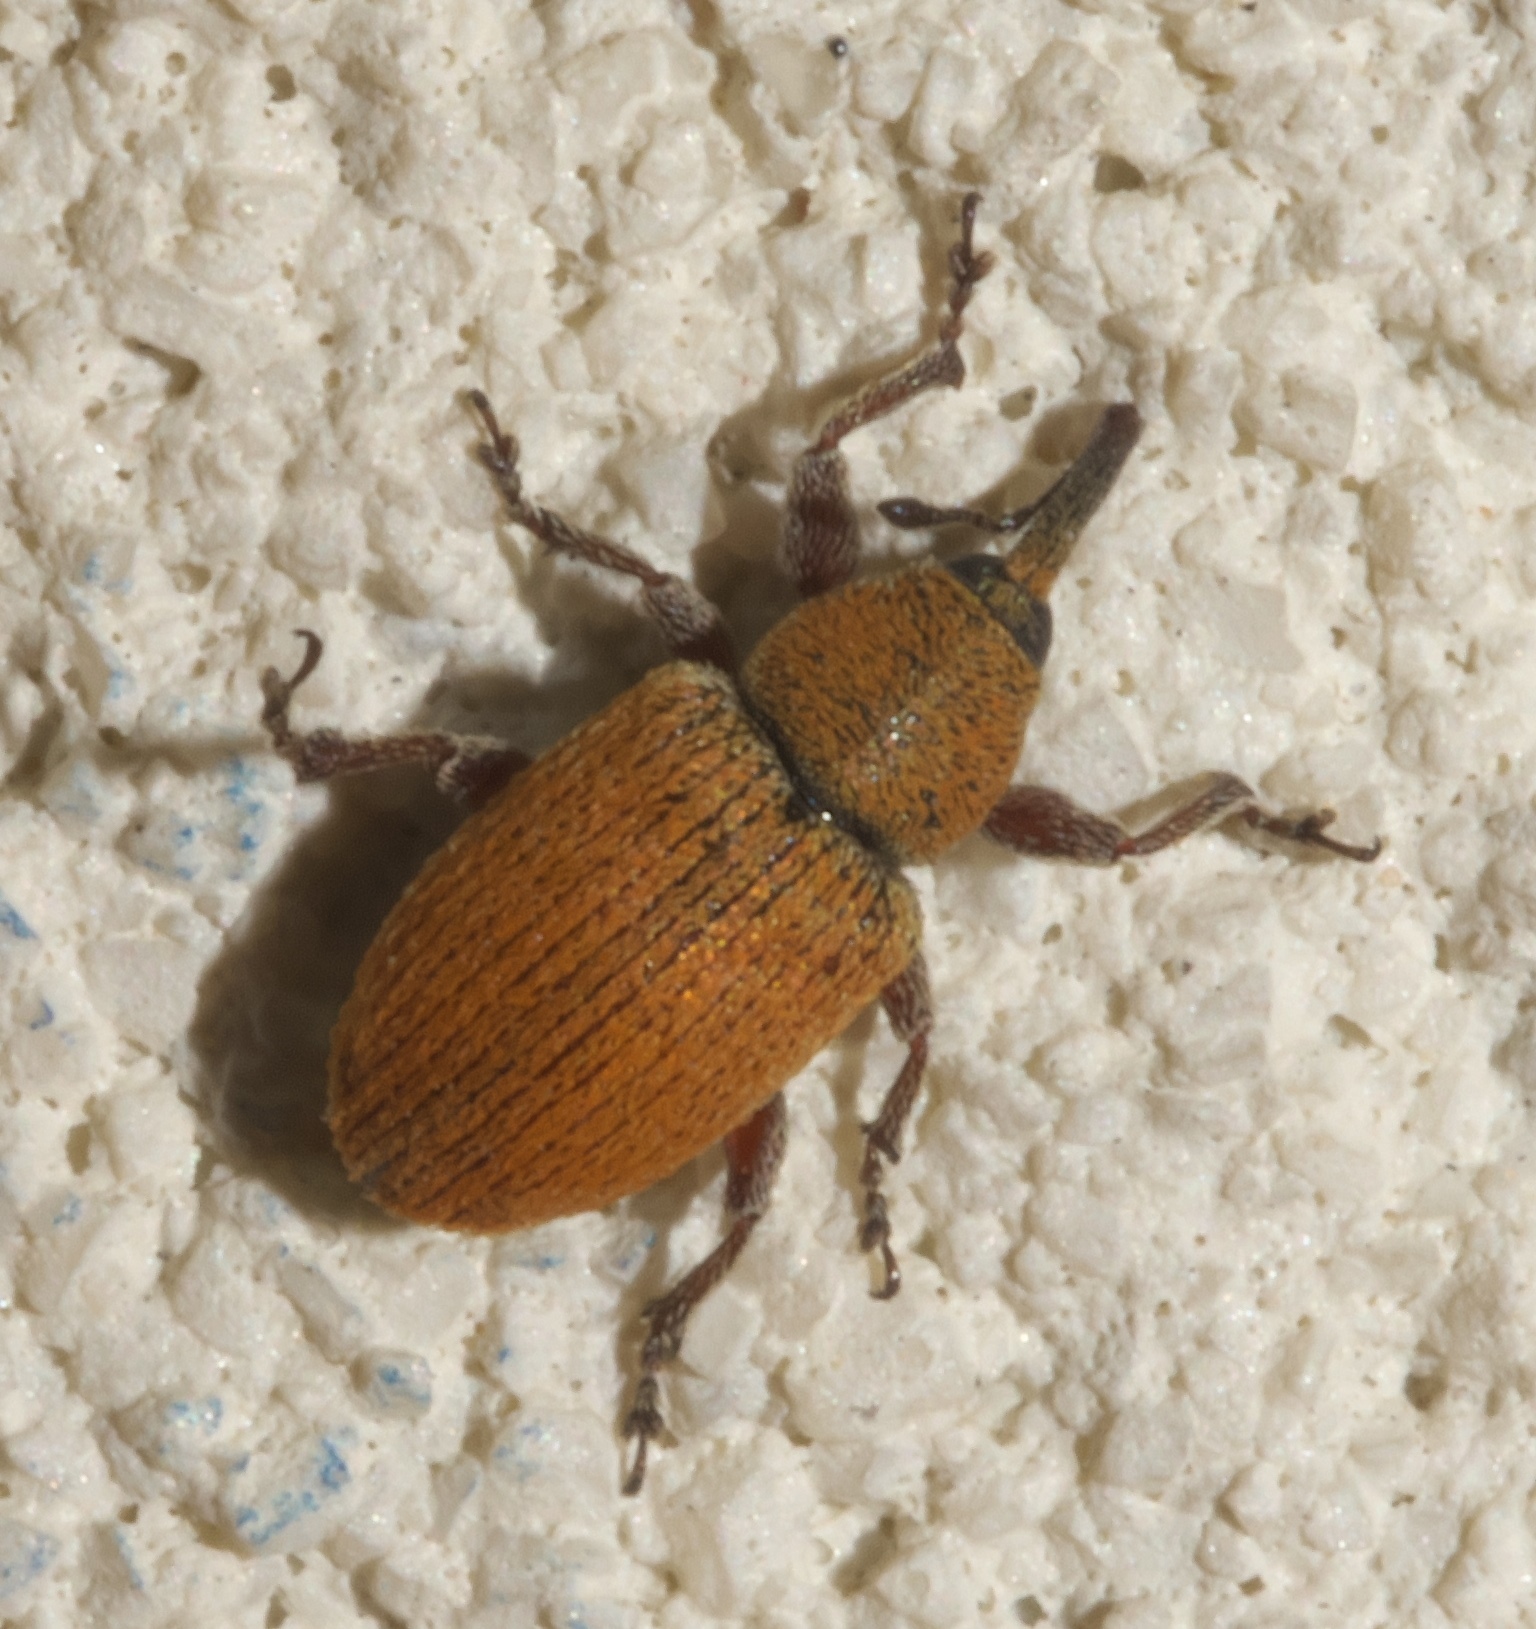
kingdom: Animalia
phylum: Arthropoda
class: Insecta
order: Coleoptera
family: Curculionidae
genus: Smicronyx
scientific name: Smicronyx fulvus
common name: Red sunflower seed weevil
